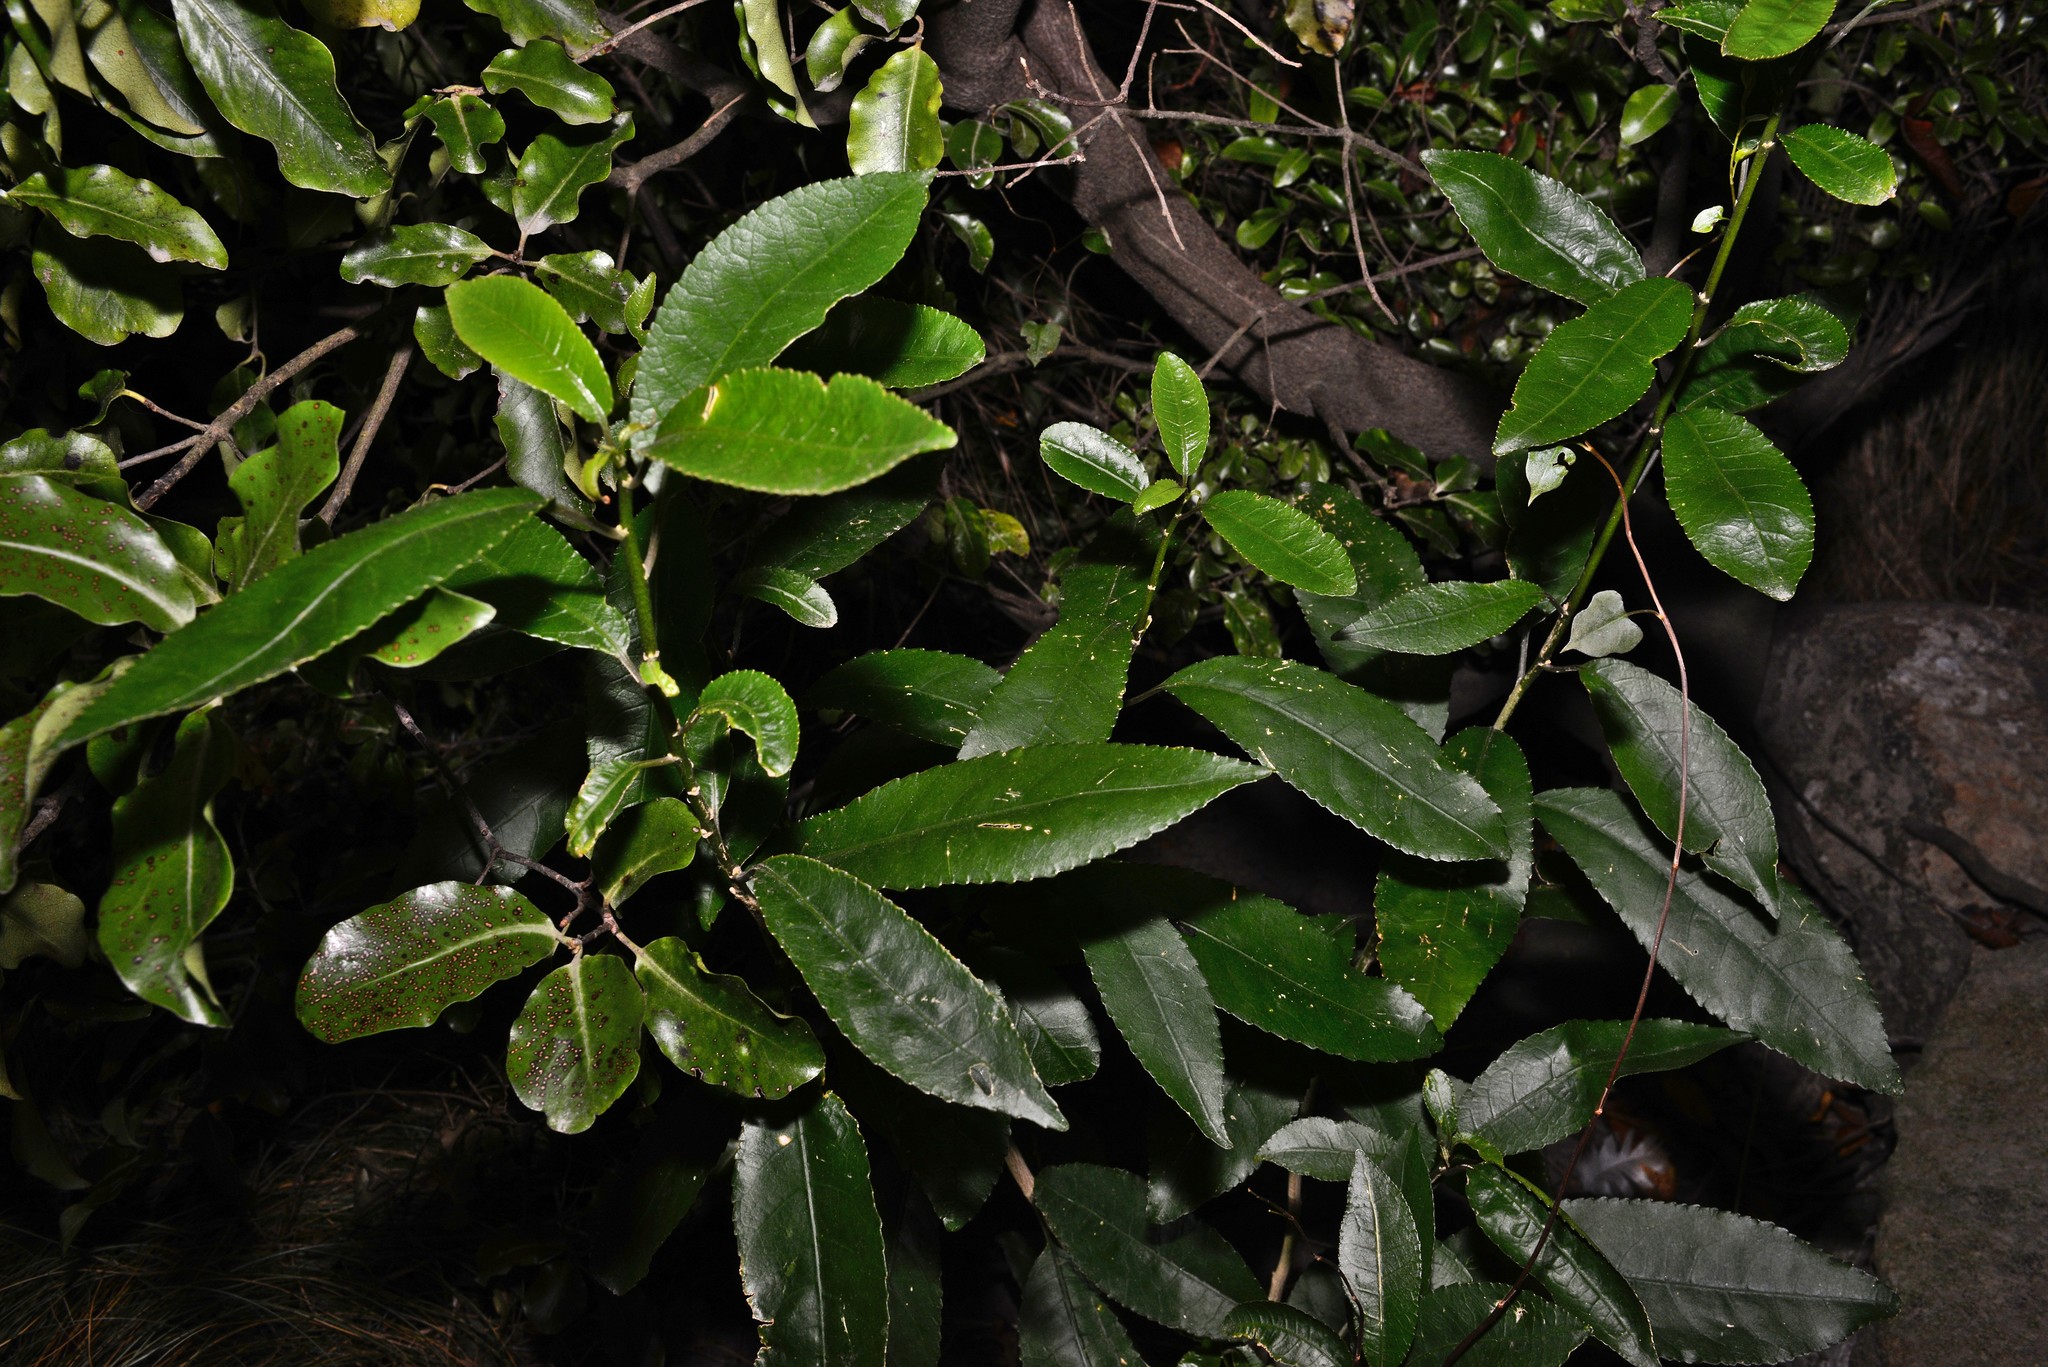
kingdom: Plantae
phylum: Tracheophyta
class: Magnoliopsida
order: Malpighiales
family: Violaceae
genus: Melicytus
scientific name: Melicytus ramiflorus
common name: Mahoe
